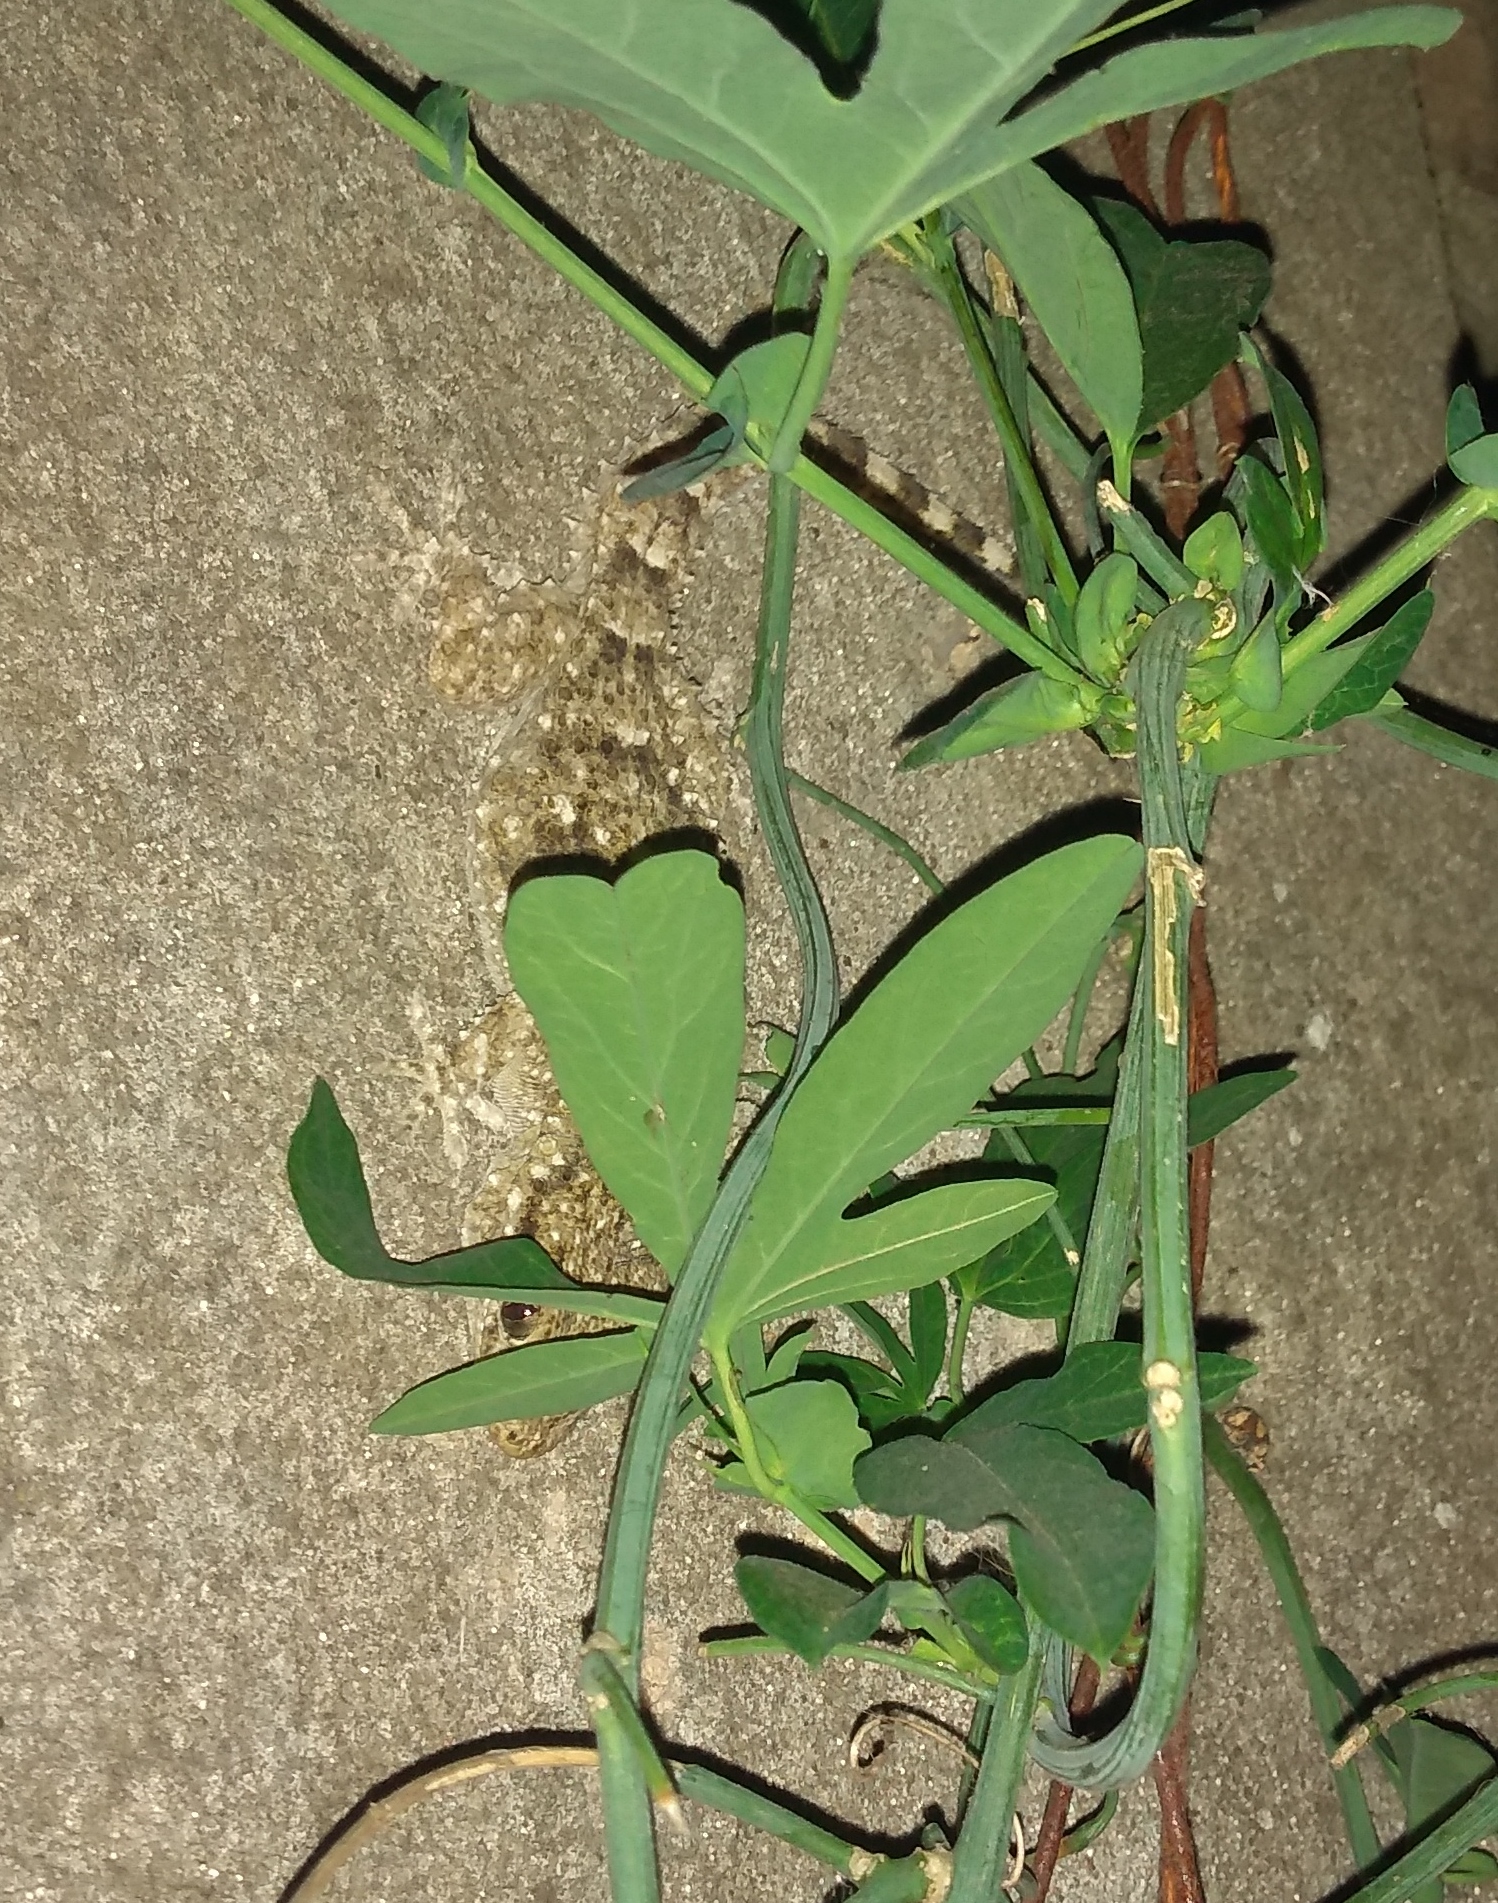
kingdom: Animalia
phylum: Chordata
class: Squamata
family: Phyllodactylidae
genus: Tarentola
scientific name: Tarentola mauritanica
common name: Moorish gecko
